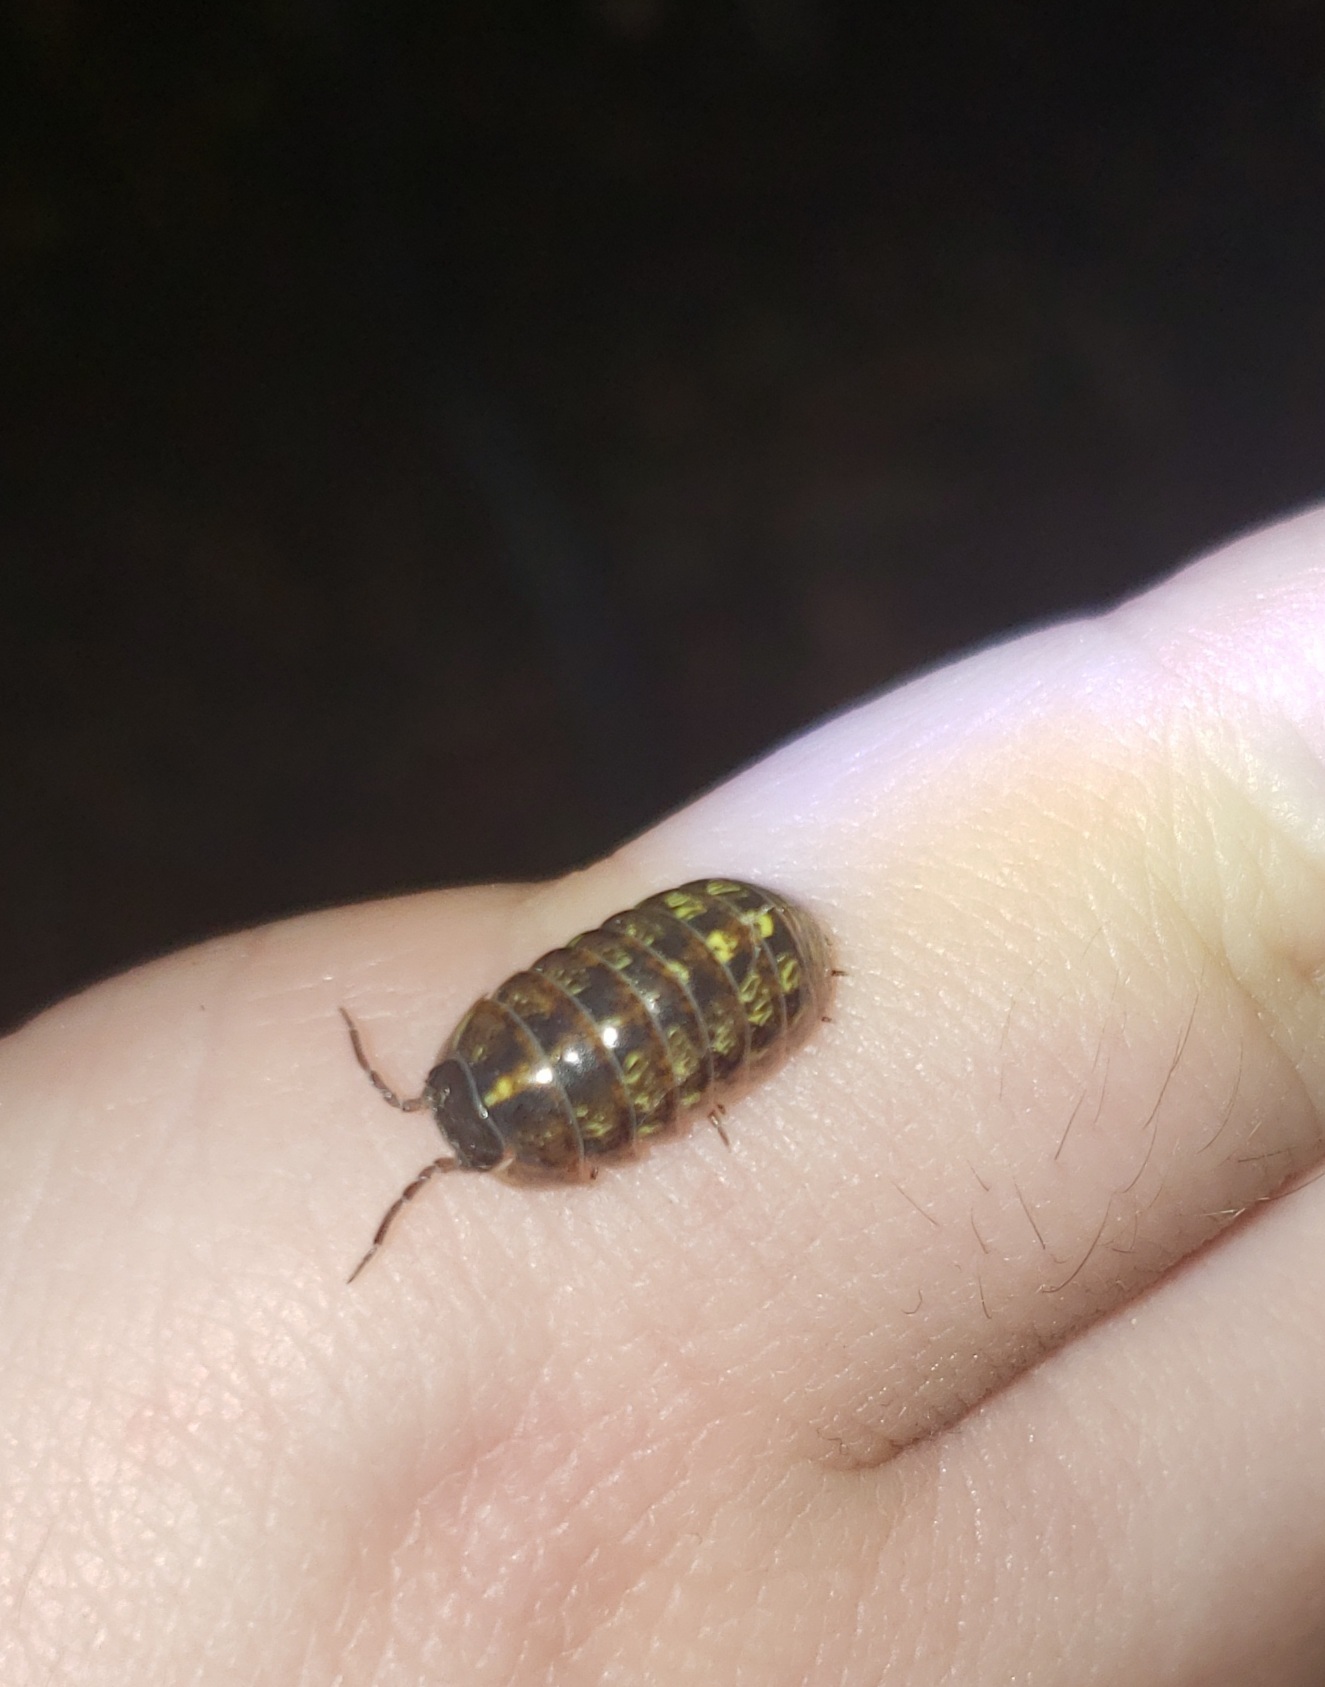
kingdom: Animalia
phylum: Arthropoda
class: Malacostraca
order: Isopoda
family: Armadillidiidae
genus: Armadillidium
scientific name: Armadillidium vulgare
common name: Common pill woodlouse
